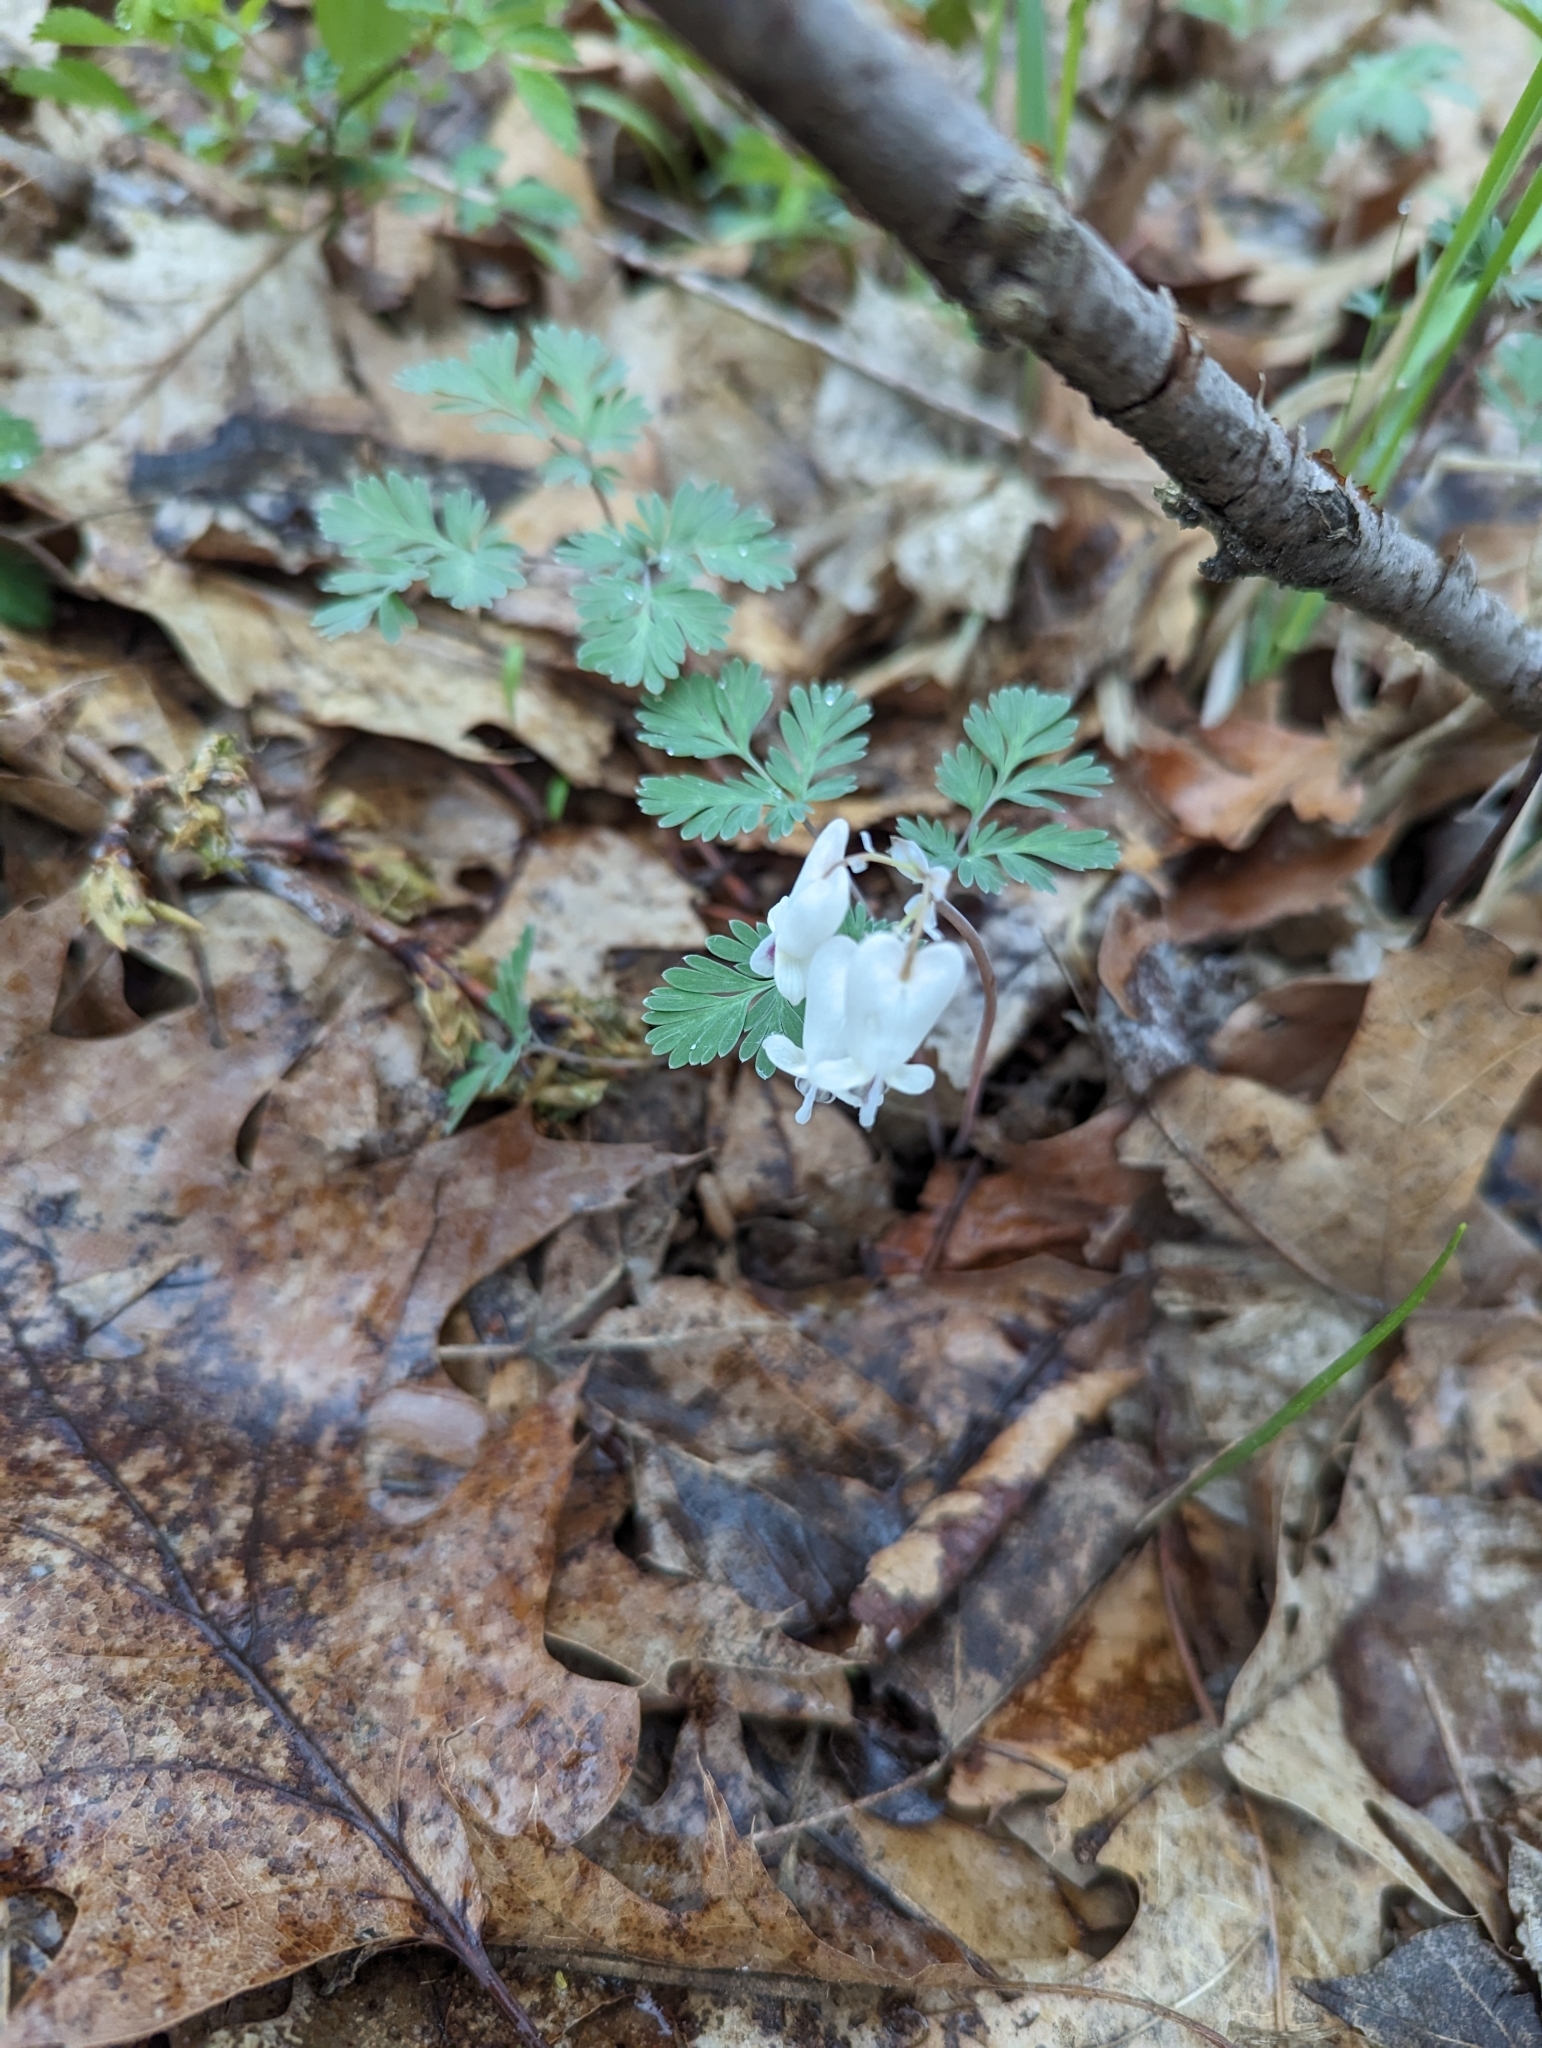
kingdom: Plantae
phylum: Tracheophyta
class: Magnoliopsida
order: Ranunculales
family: Papaveraceae
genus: Dicentra
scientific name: Dicentra canadensis
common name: Squirrel-corn
